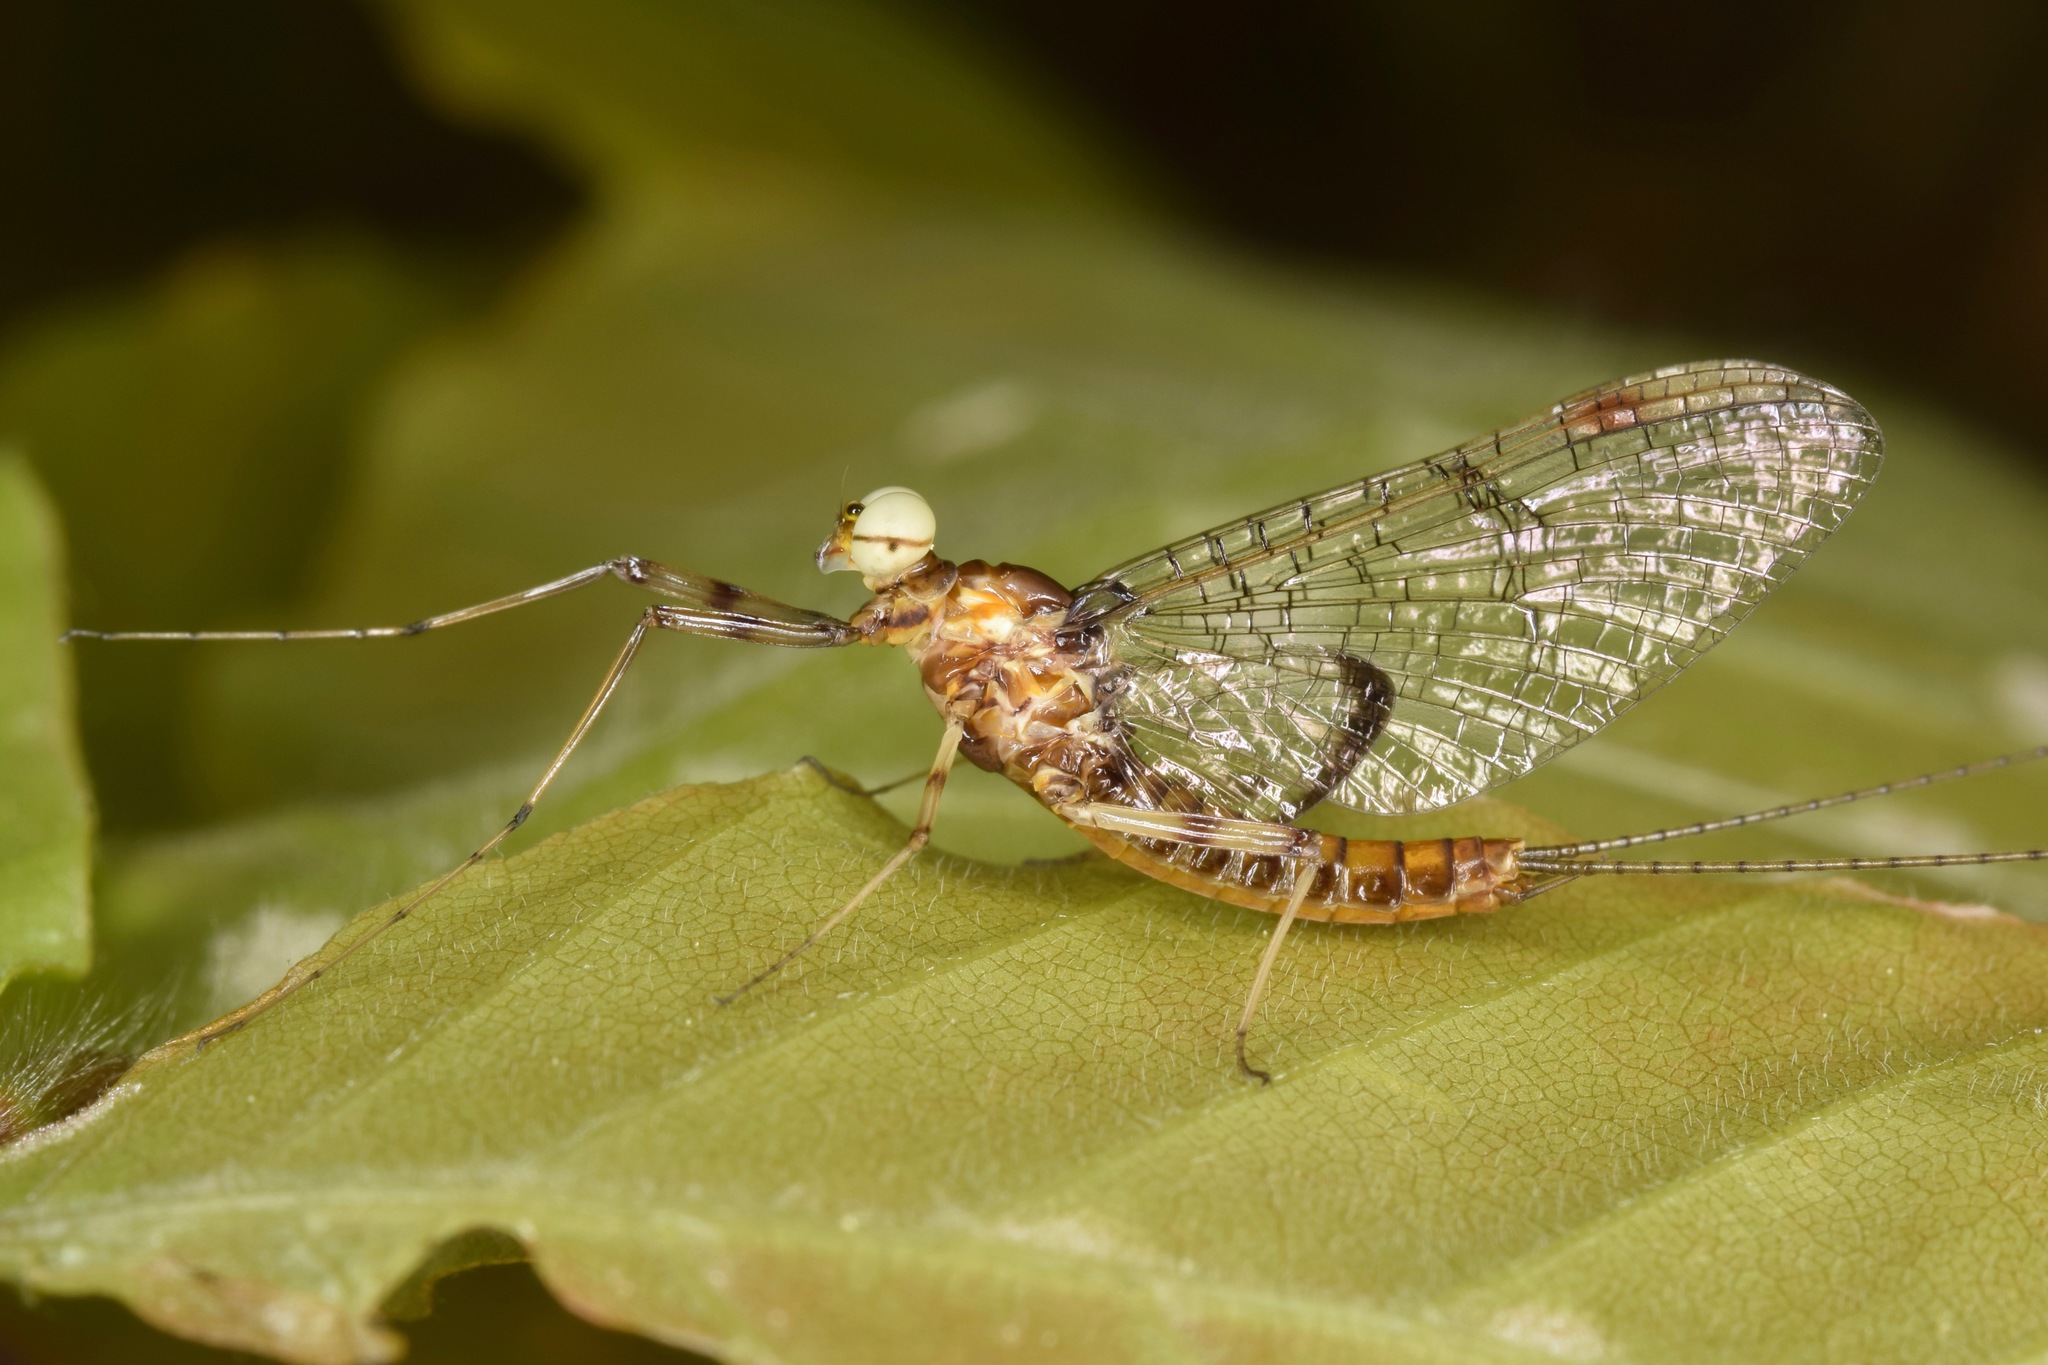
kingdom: Animalia
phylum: Arthropoda
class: Insecta
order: Ephemeroptera
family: Heptageniidae
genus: Maccaffertium
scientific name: Maccaffertium pudicum
